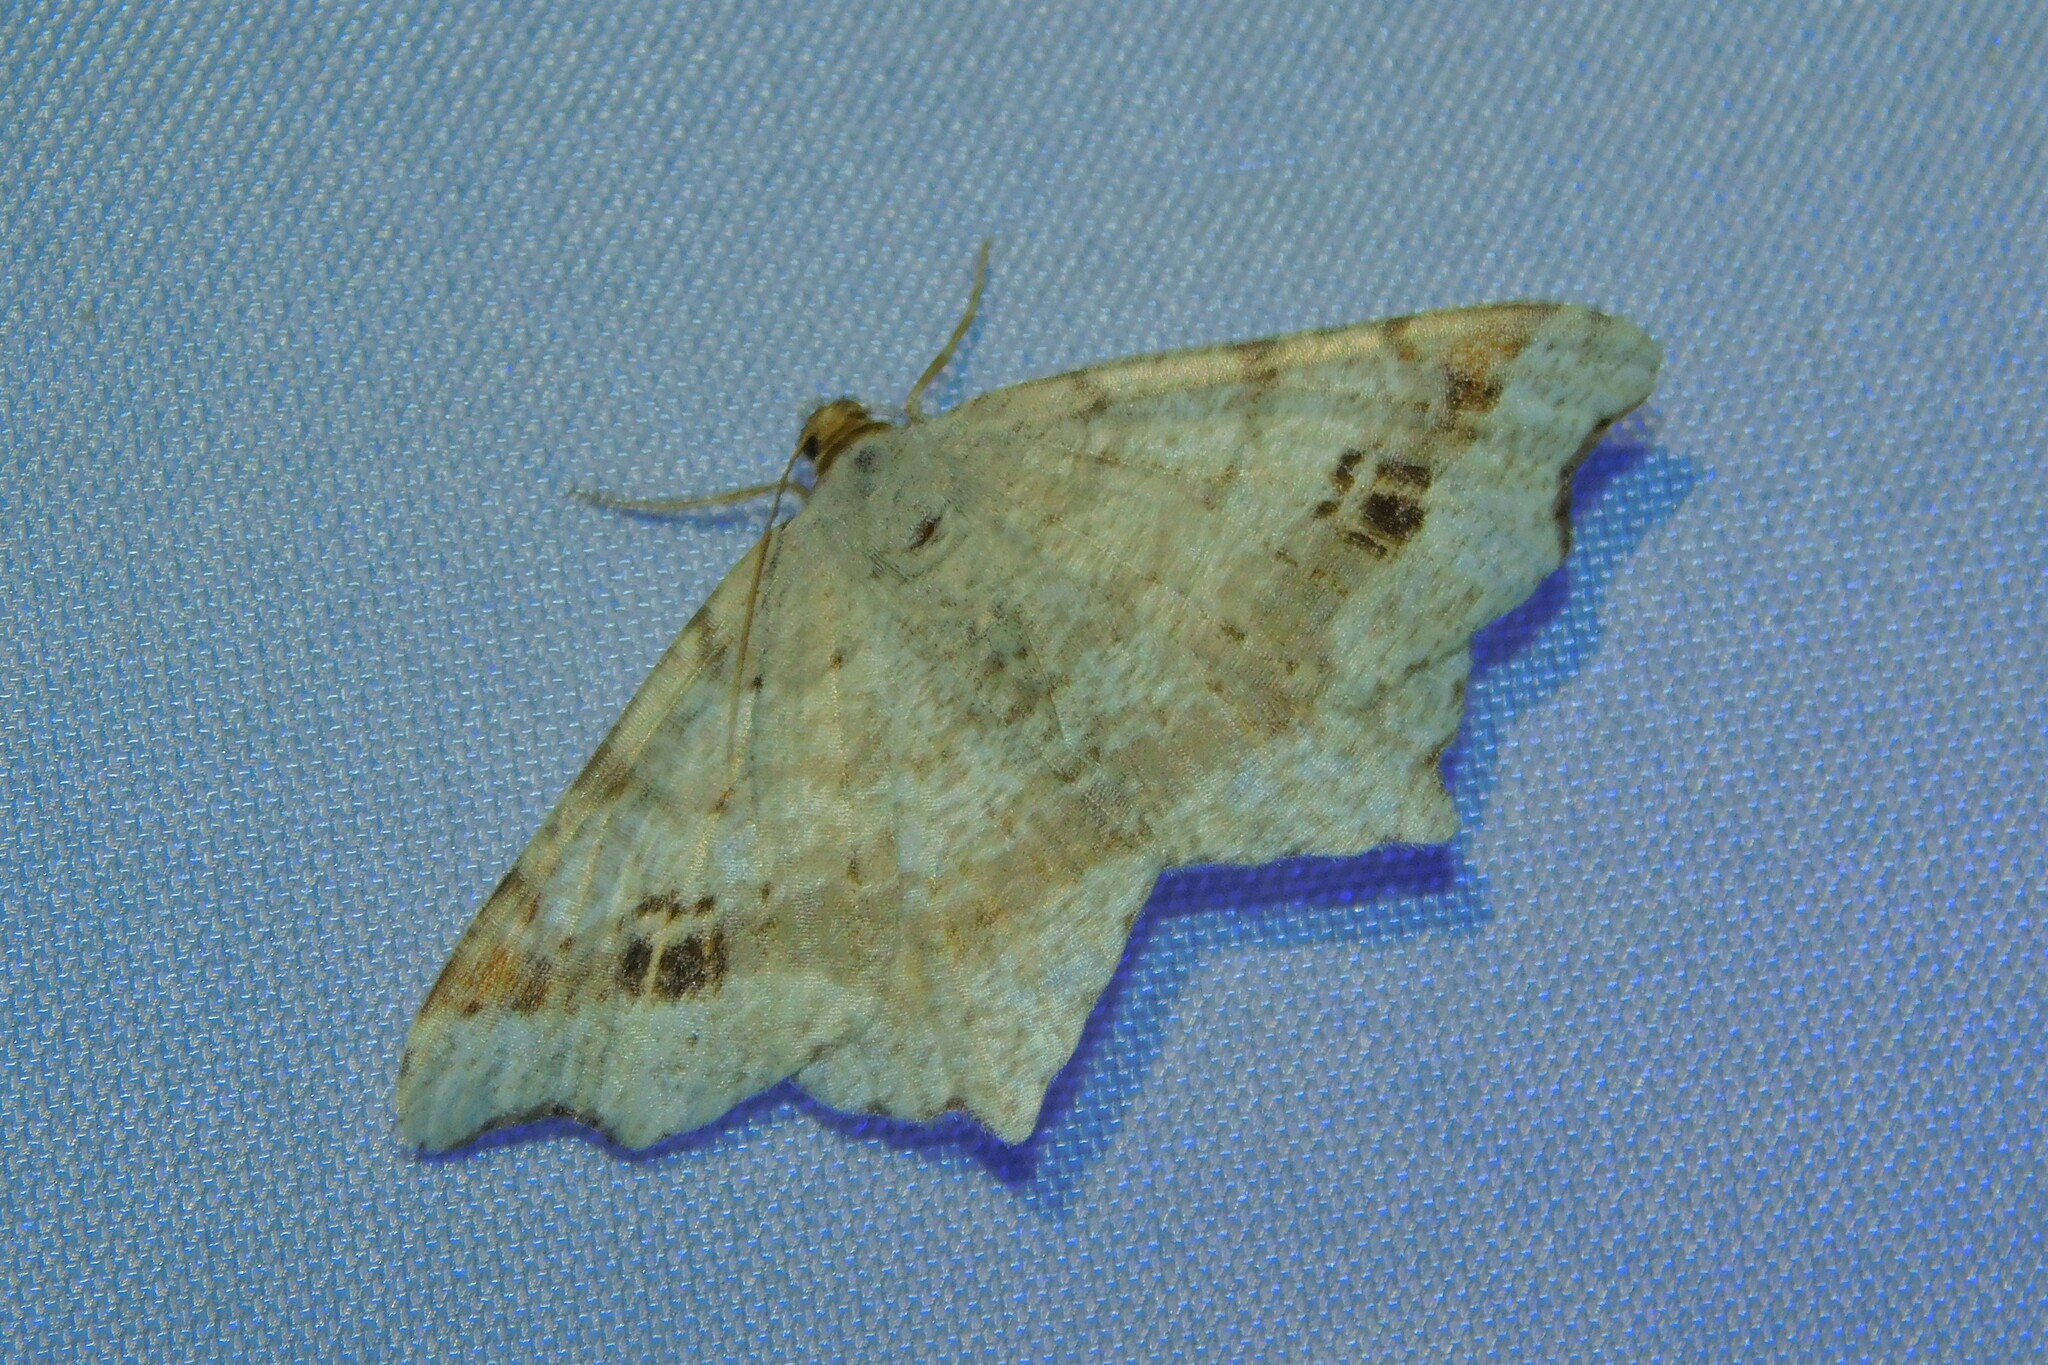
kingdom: Animalia
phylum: Arthropoda
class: Insecta
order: Lepidoptera
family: Geometridae
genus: Macaria
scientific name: Macaria alternata
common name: Sharp-angled peacock
